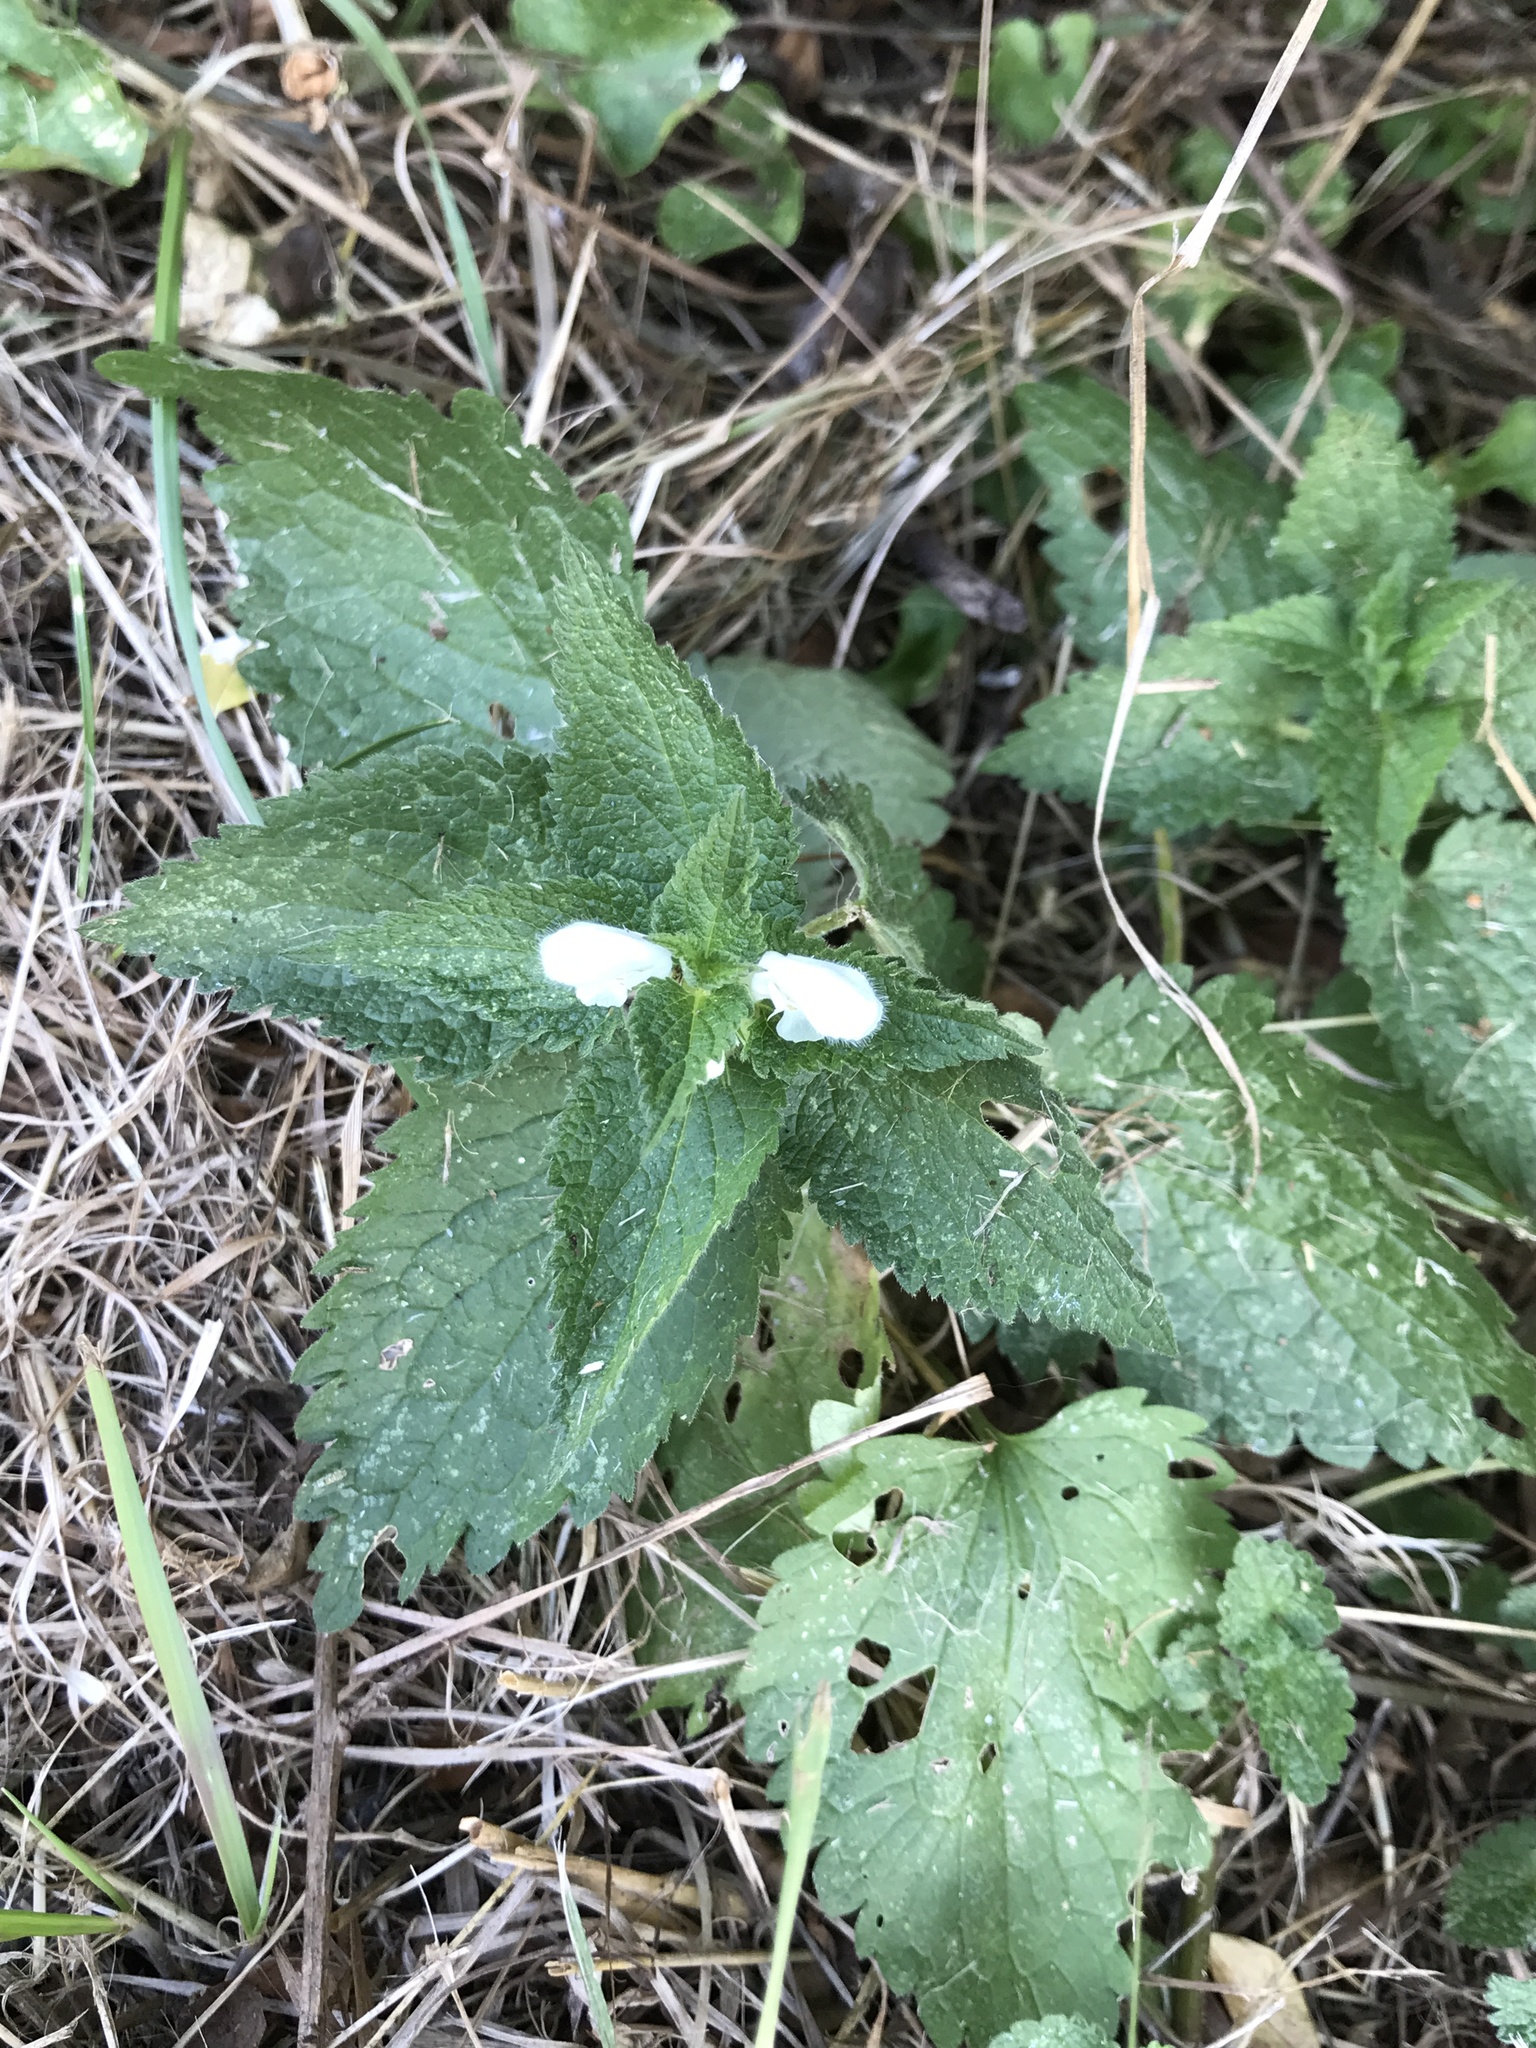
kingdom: Plantae
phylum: Tracheophyta
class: Magnoliopsida
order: Lamiales
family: Lamiaceae
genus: Lamium
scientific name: Lamium album
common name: White dead-nettle
